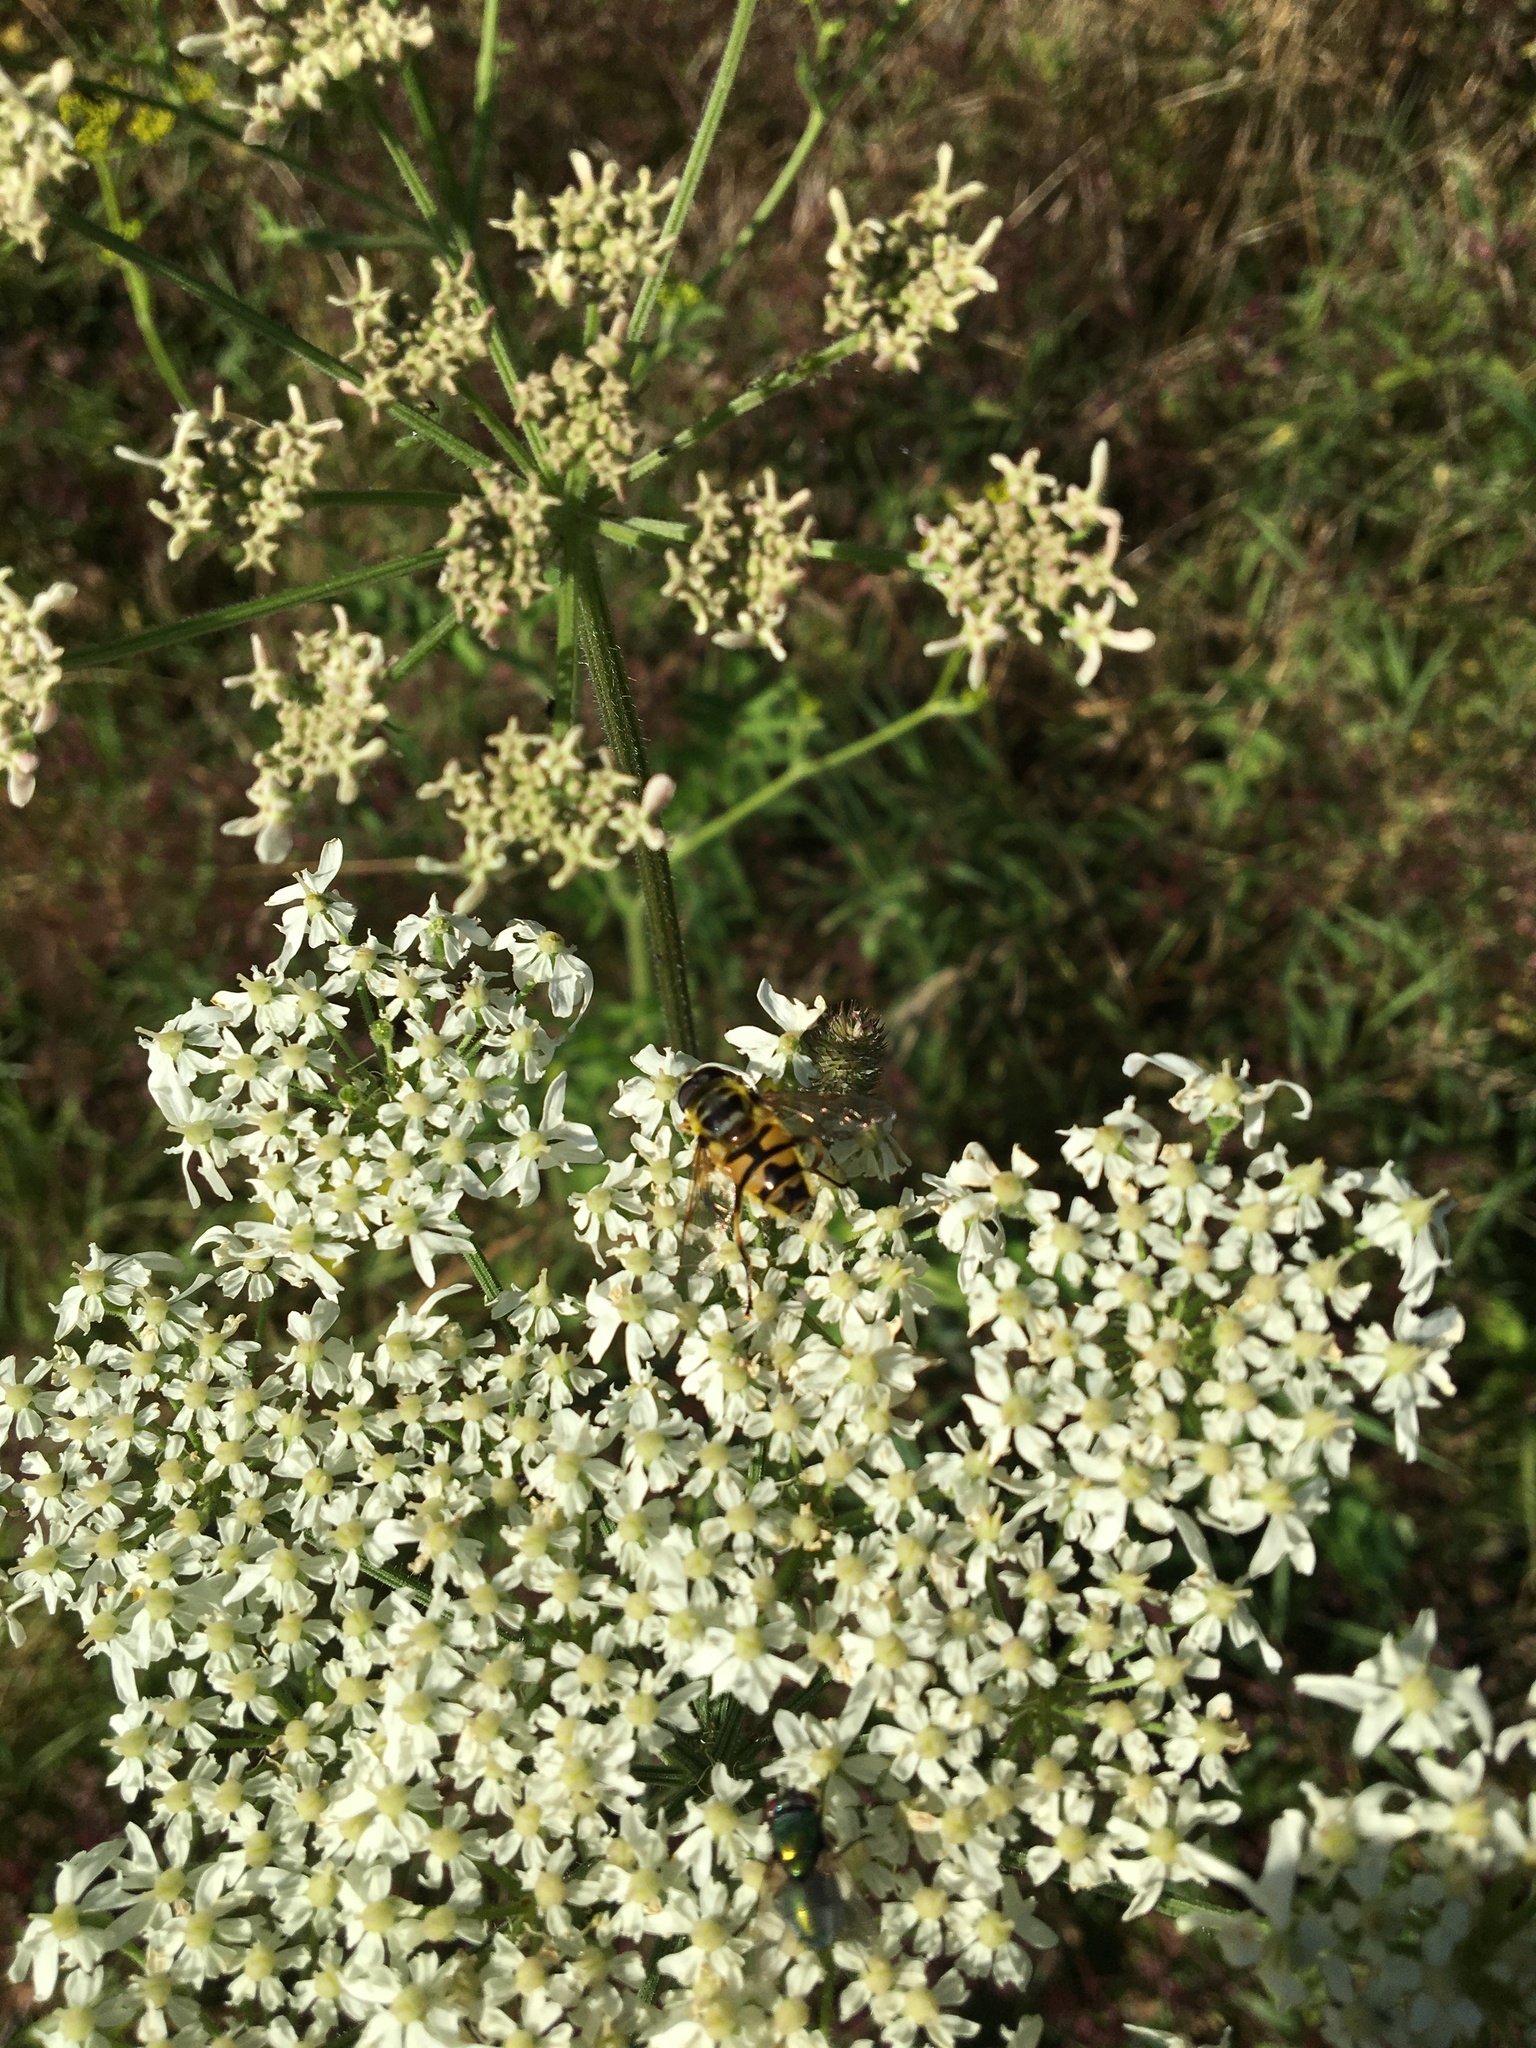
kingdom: Animalia
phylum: Arthropoda
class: Insecta
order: Diptera
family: Syrphidae
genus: Myathropa
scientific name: Myathropa florea
